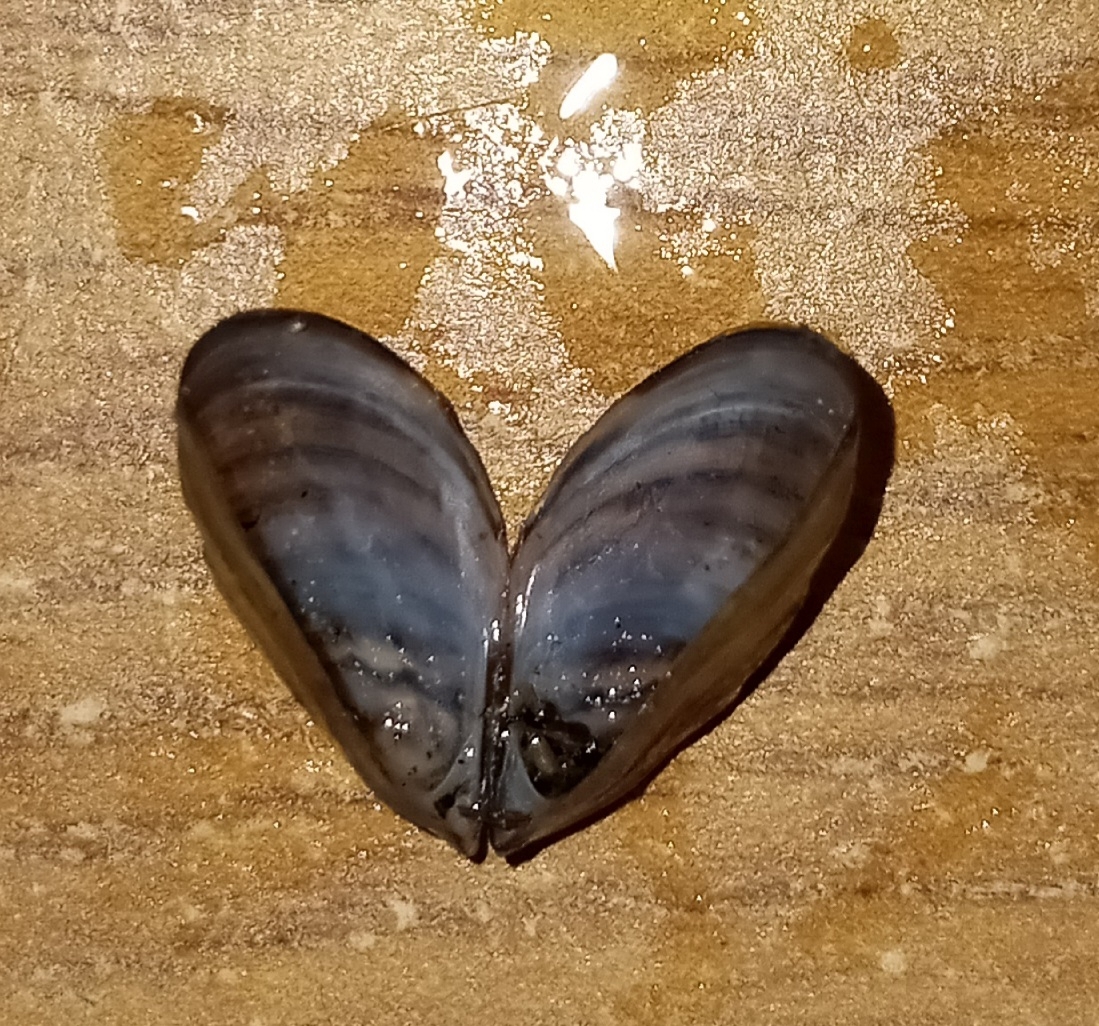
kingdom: Animalia
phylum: Mollusca
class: Bivalvia
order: Myida
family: Dreissenidae
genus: Dreissena
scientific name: Dreissena polymorpha
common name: Zebra mussel
